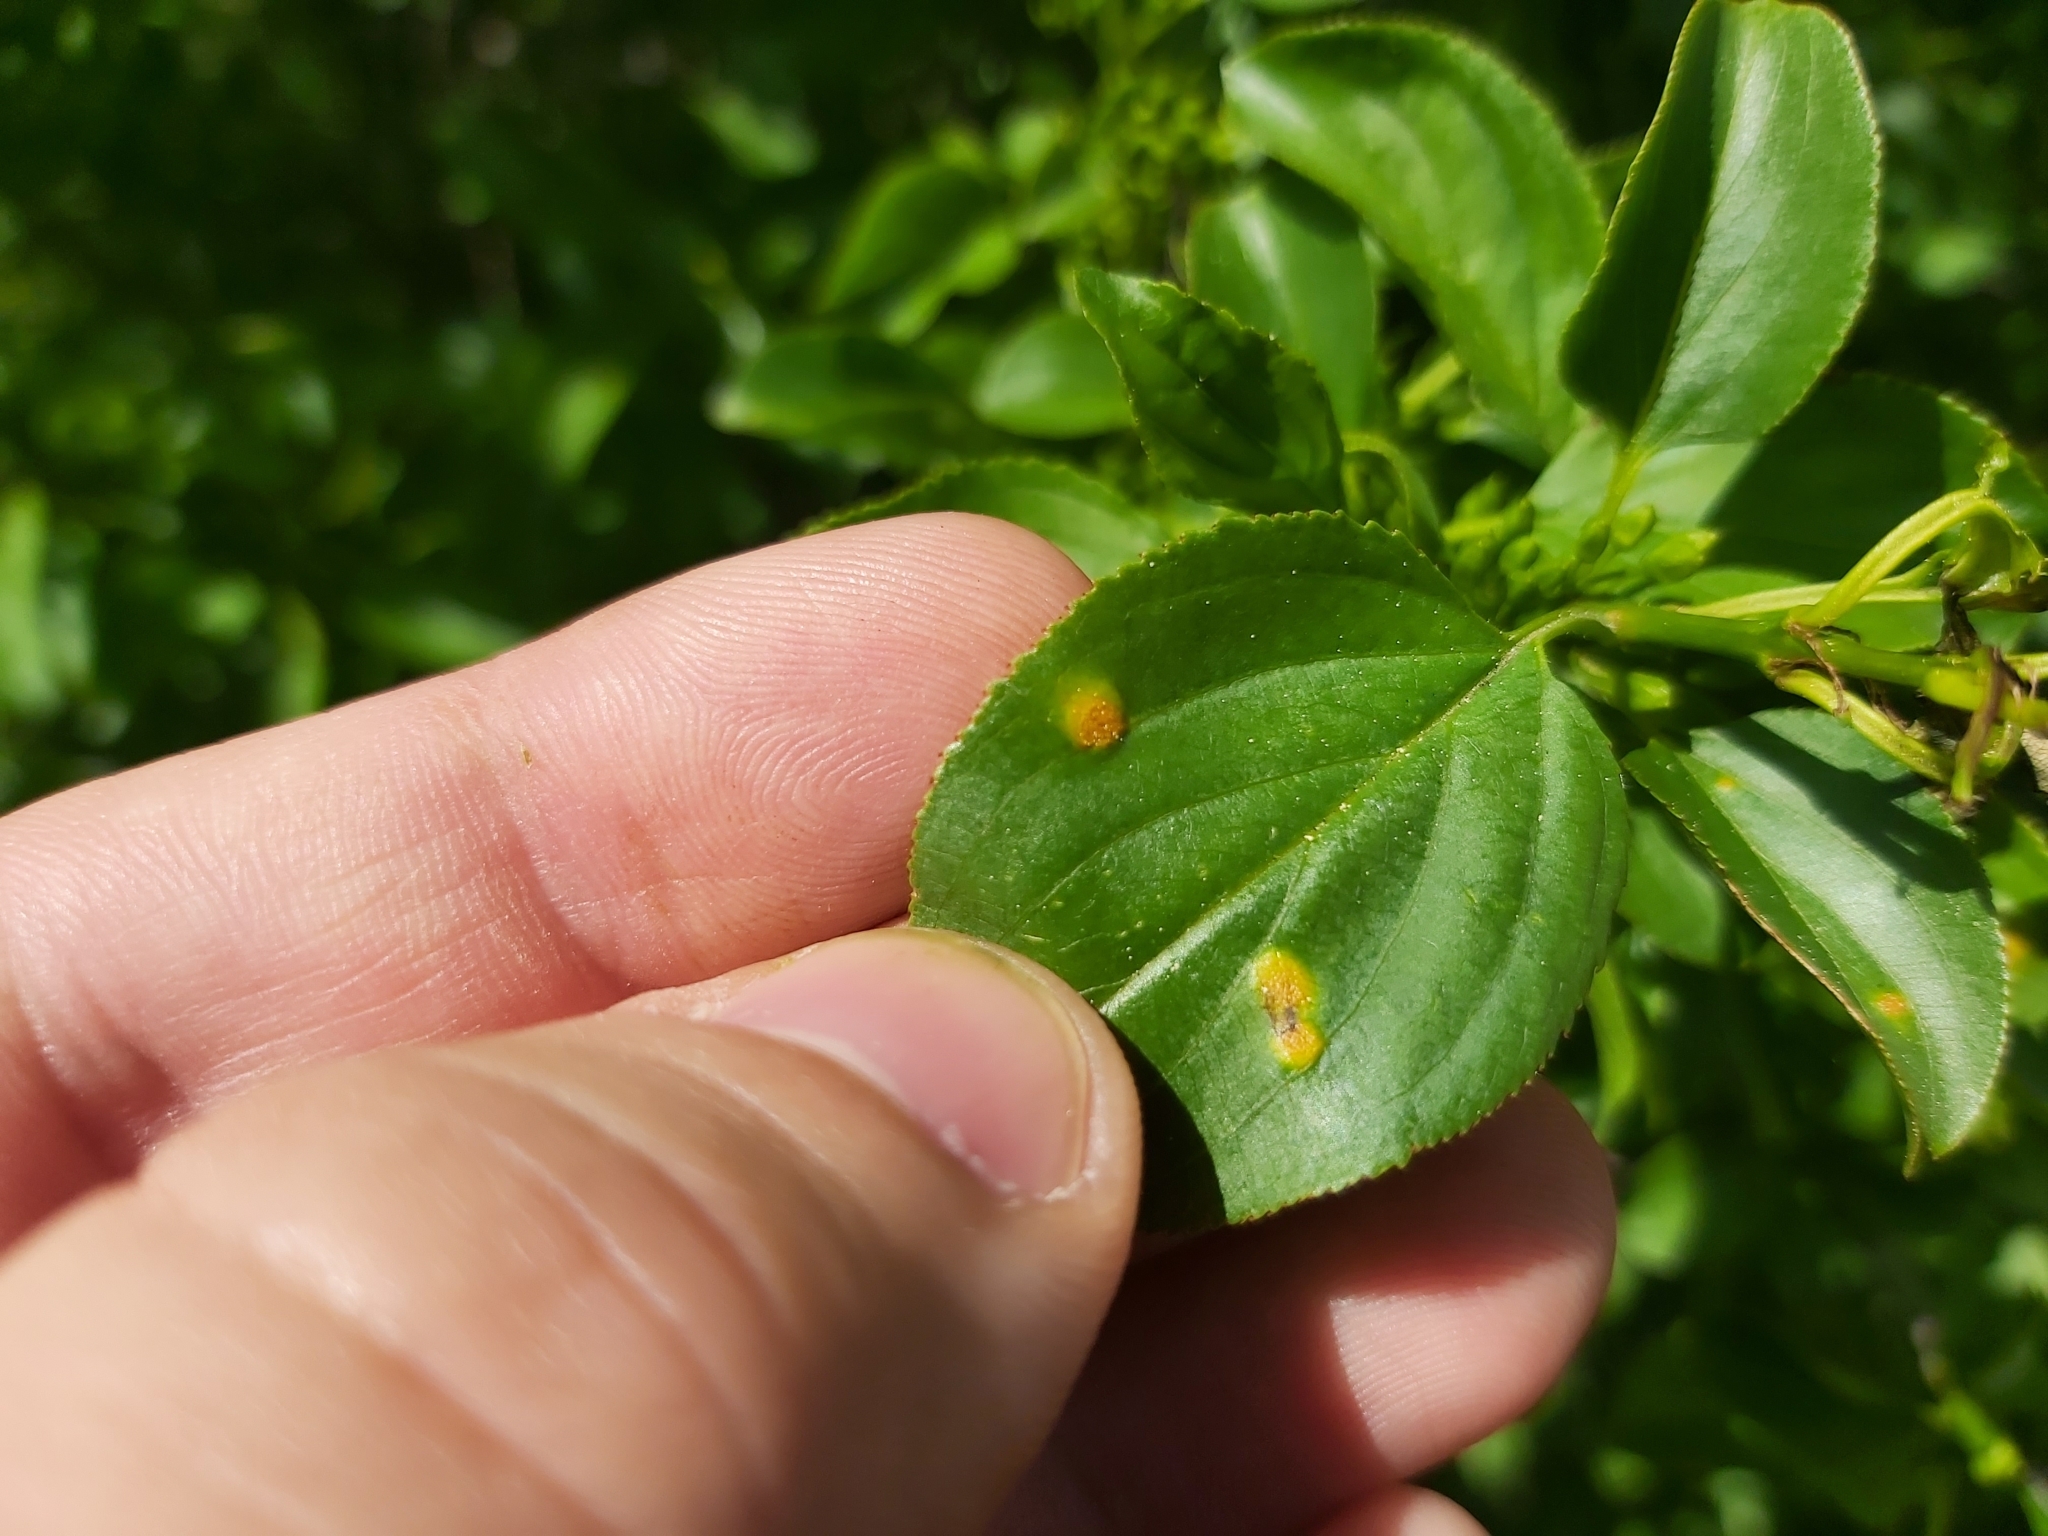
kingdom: Fungi
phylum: Basidiomycota
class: Pucciniomycetes
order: Pucciniales
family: Pucciniaceae
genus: Puccinia
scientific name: Puccinia coronata
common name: Crown rust
